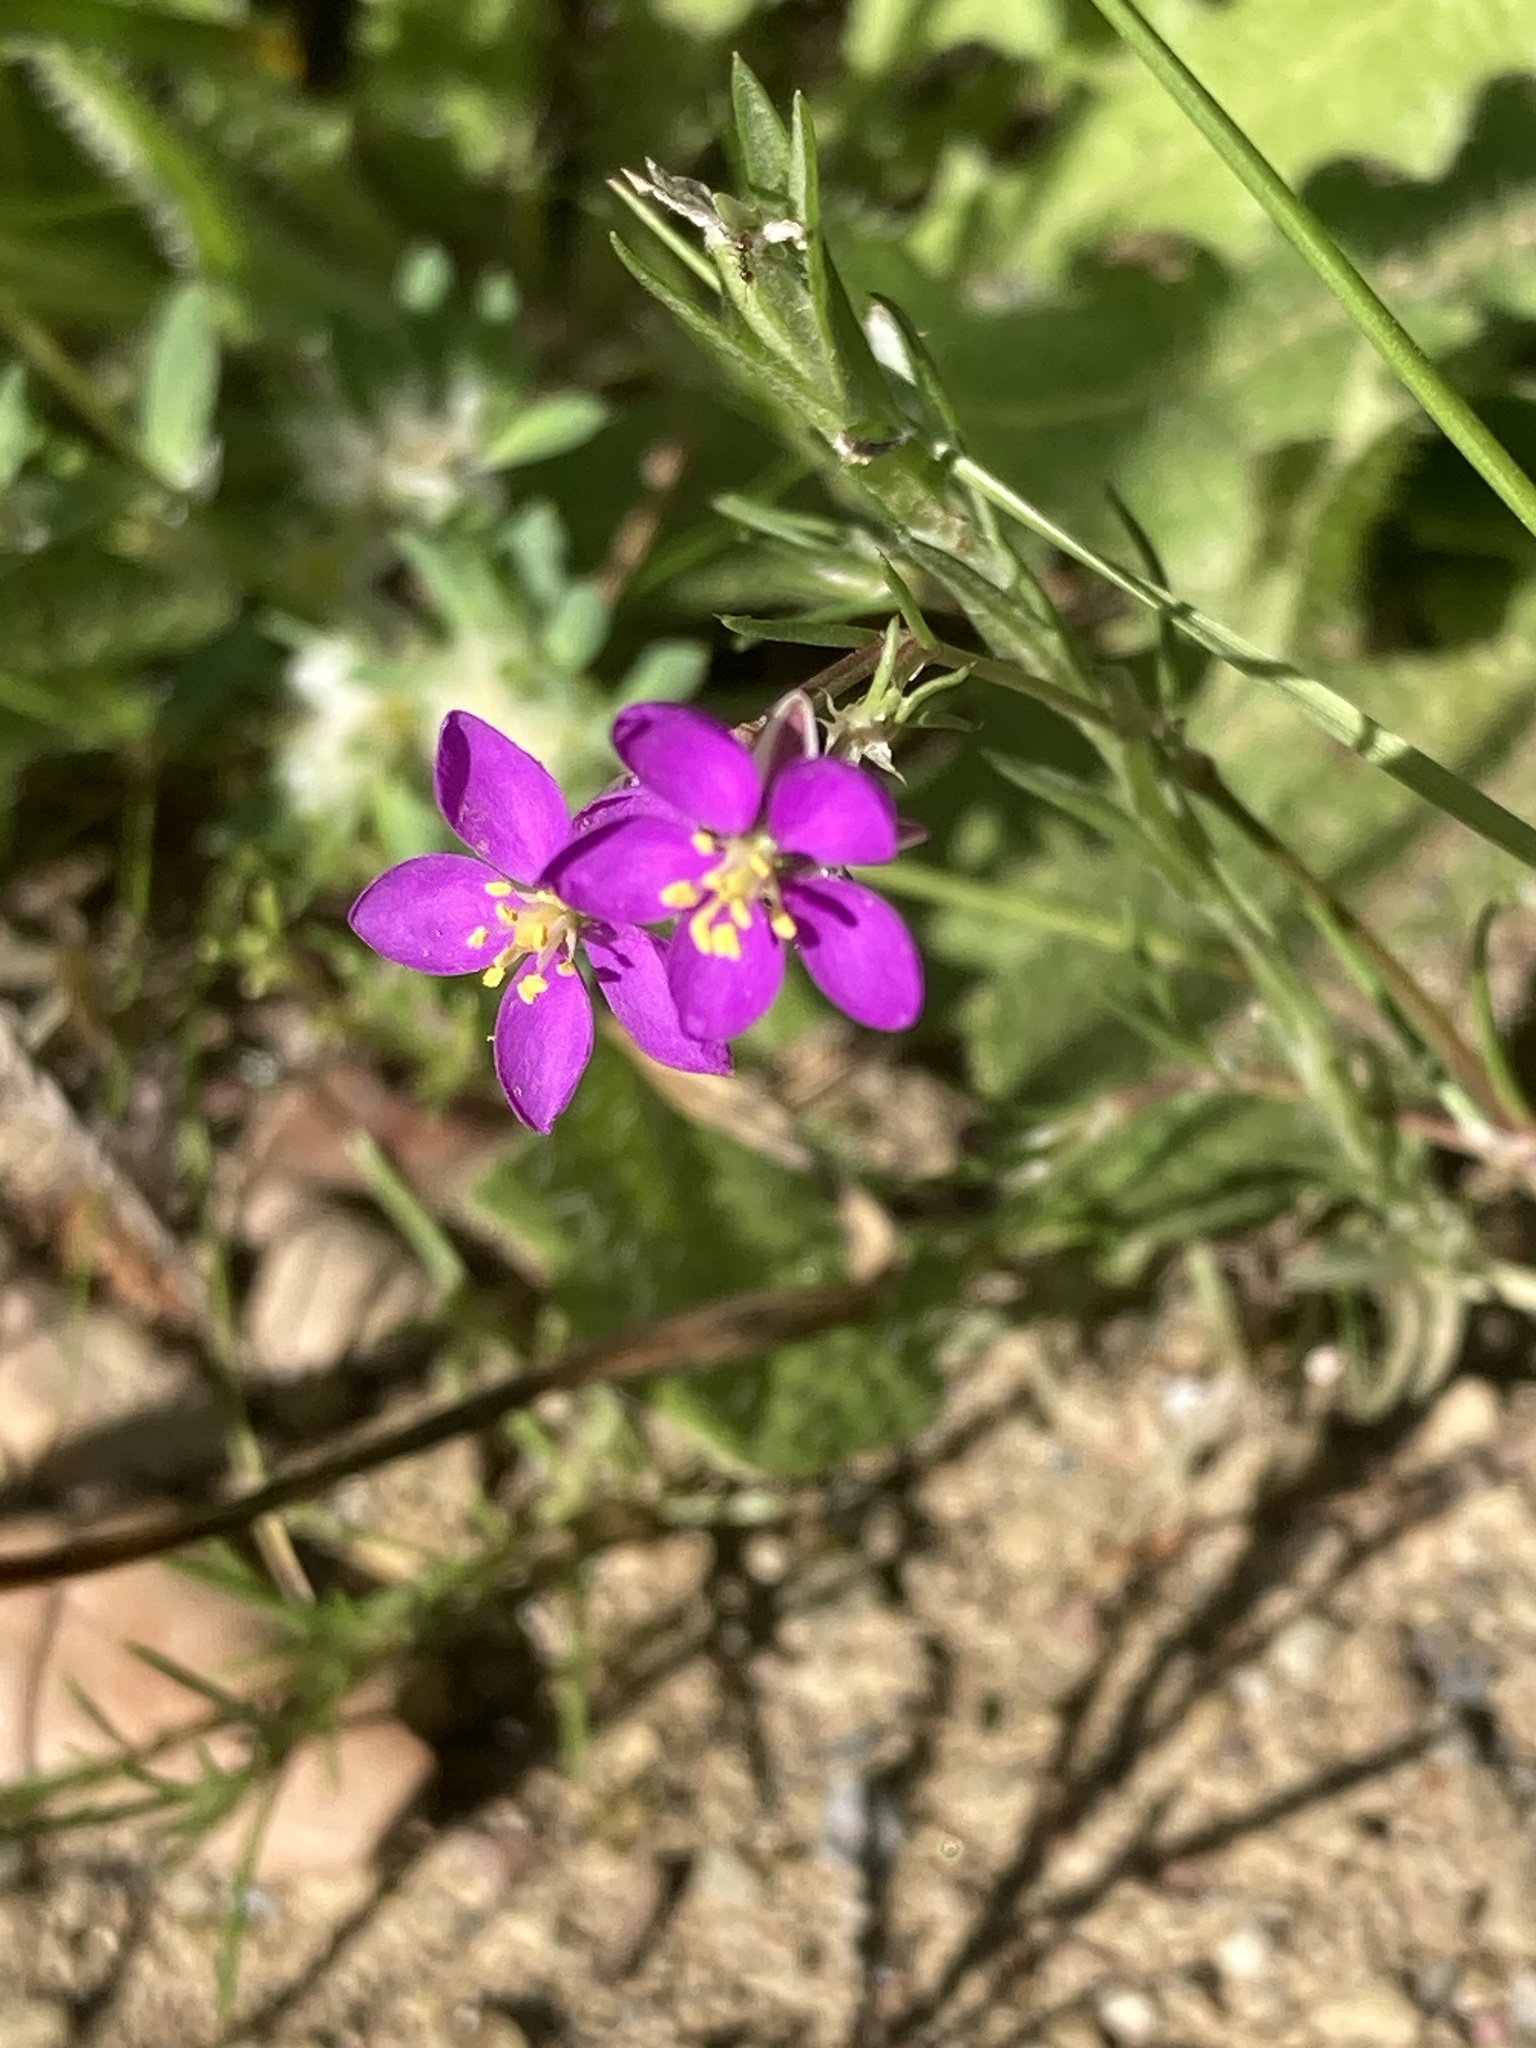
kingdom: Plantae
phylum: Tracheophyta
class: Magnoliopsida
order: Caryophyllales
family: Caryophyllaceae
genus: Spergularia
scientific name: Spergularia purpurea
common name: Purple sandspurry
